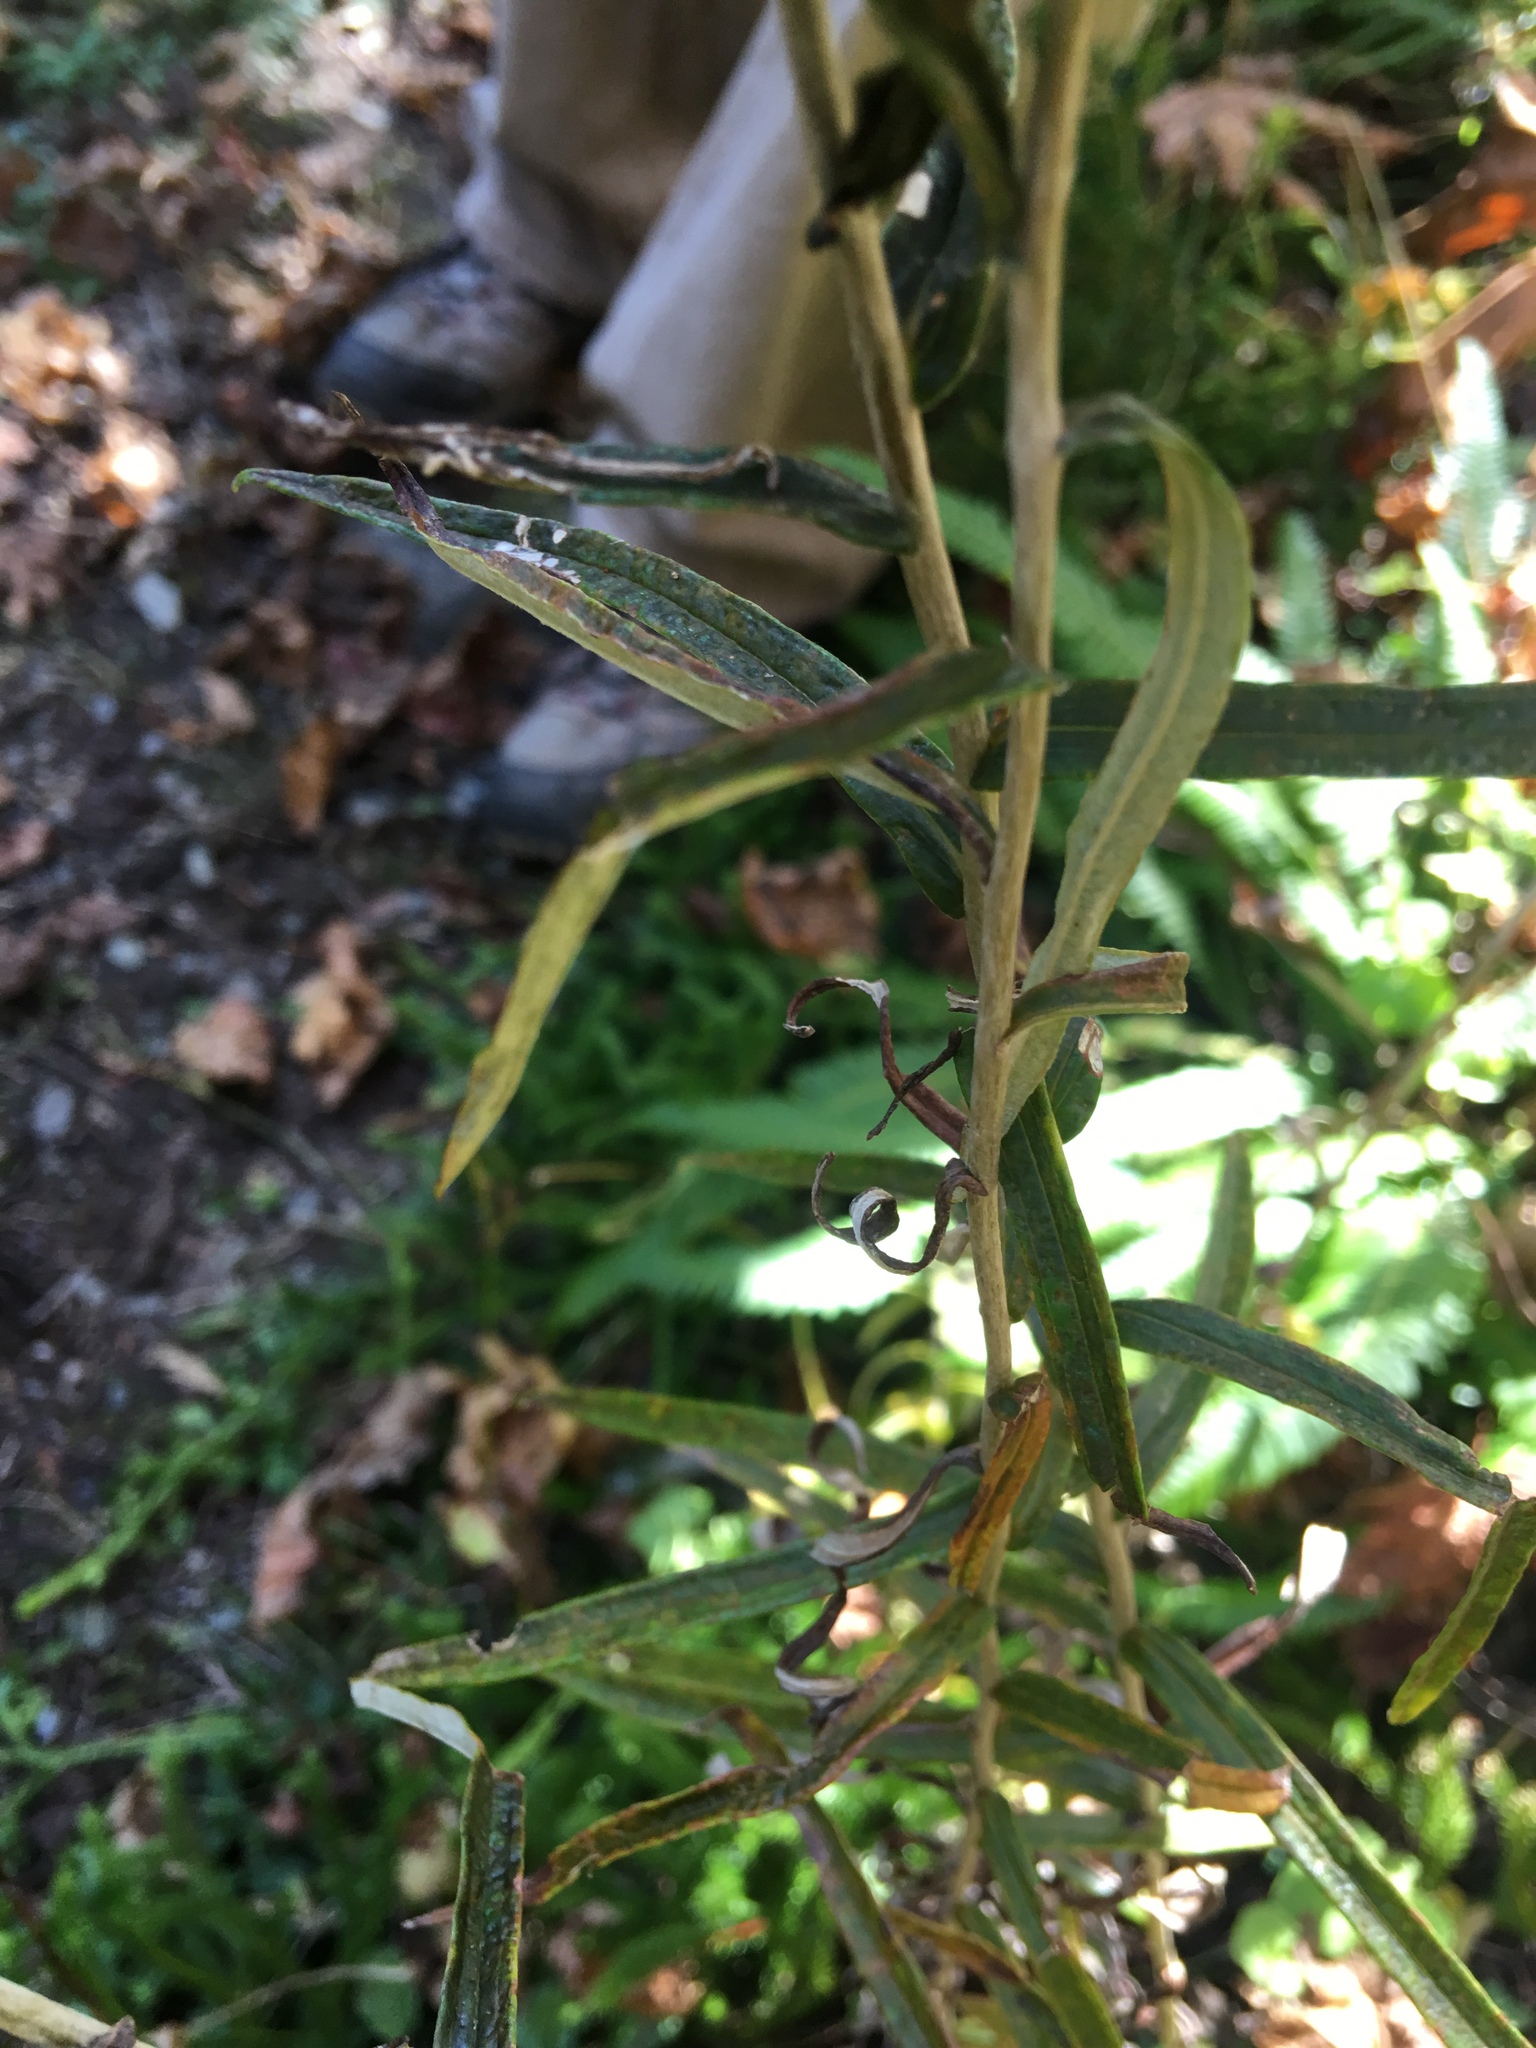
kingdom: Plantae
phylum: Tracheophyta
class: Magnoliopsida
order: Asterales
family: Asteraceae
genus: Anaphalis
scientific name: Anaphalis margaritacea
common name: Pearly everlasting
